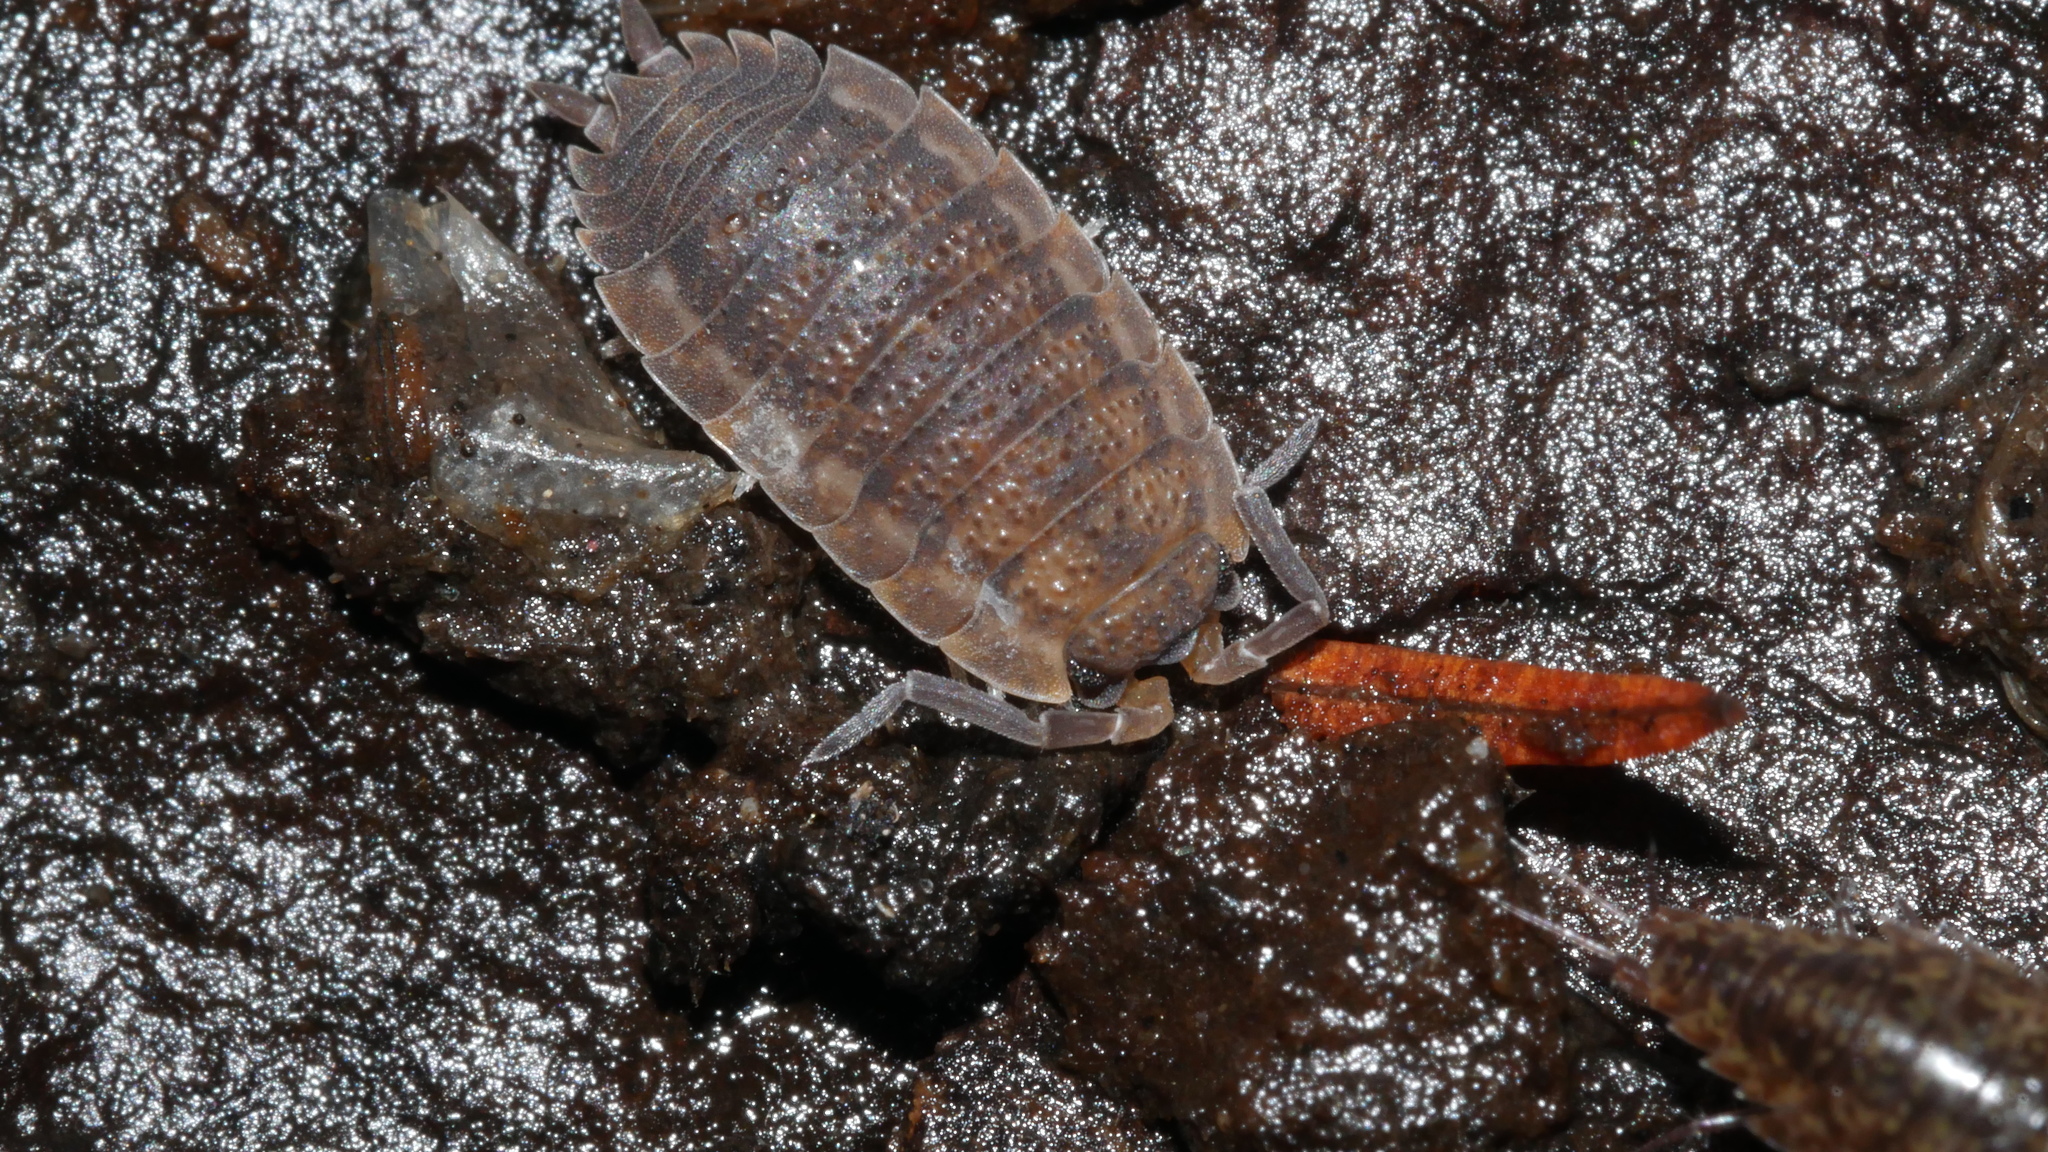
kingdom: Animalia
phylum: Arthropoda
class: Malacostraca
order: Isopoda
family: Porcellionidae
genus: Porcellio
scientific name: Porcellio scaber
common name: Common rough woodlouse
